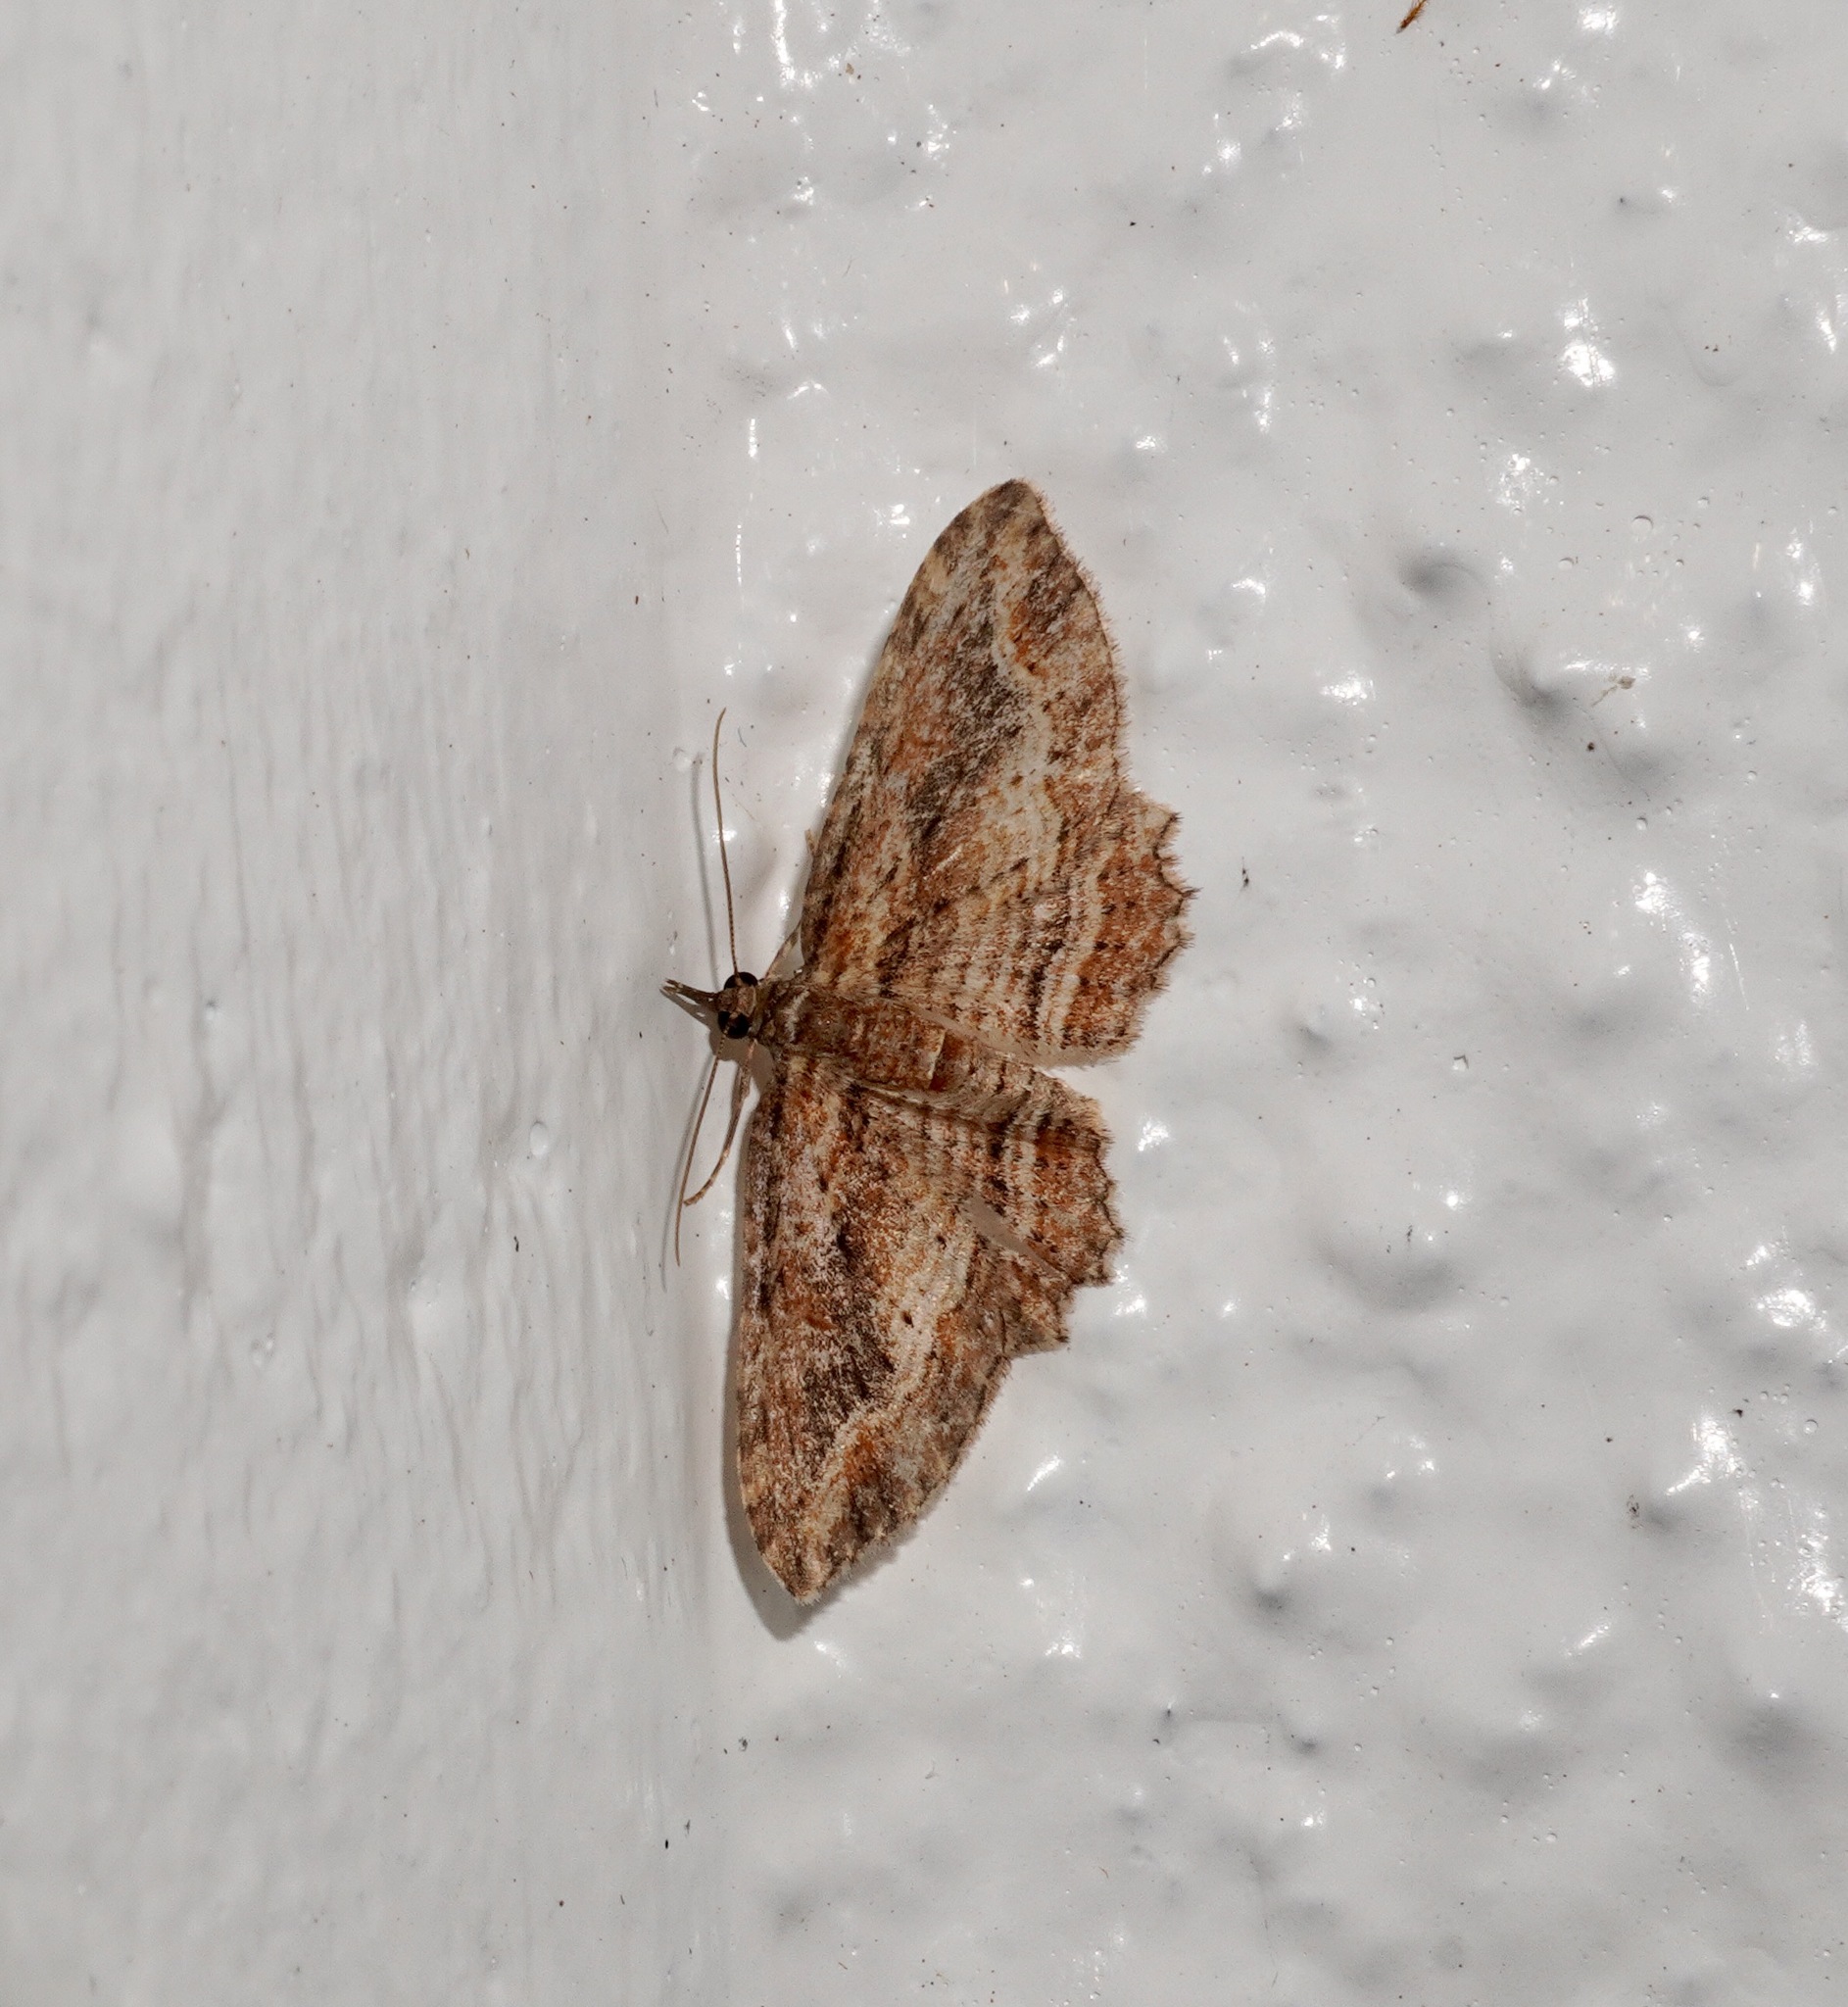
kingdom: Animalia
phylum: Arthropoda
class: Insecta
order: Lepidoptera
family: Geometridae
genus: Chloroclystis
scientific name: Chloroclystis filata
